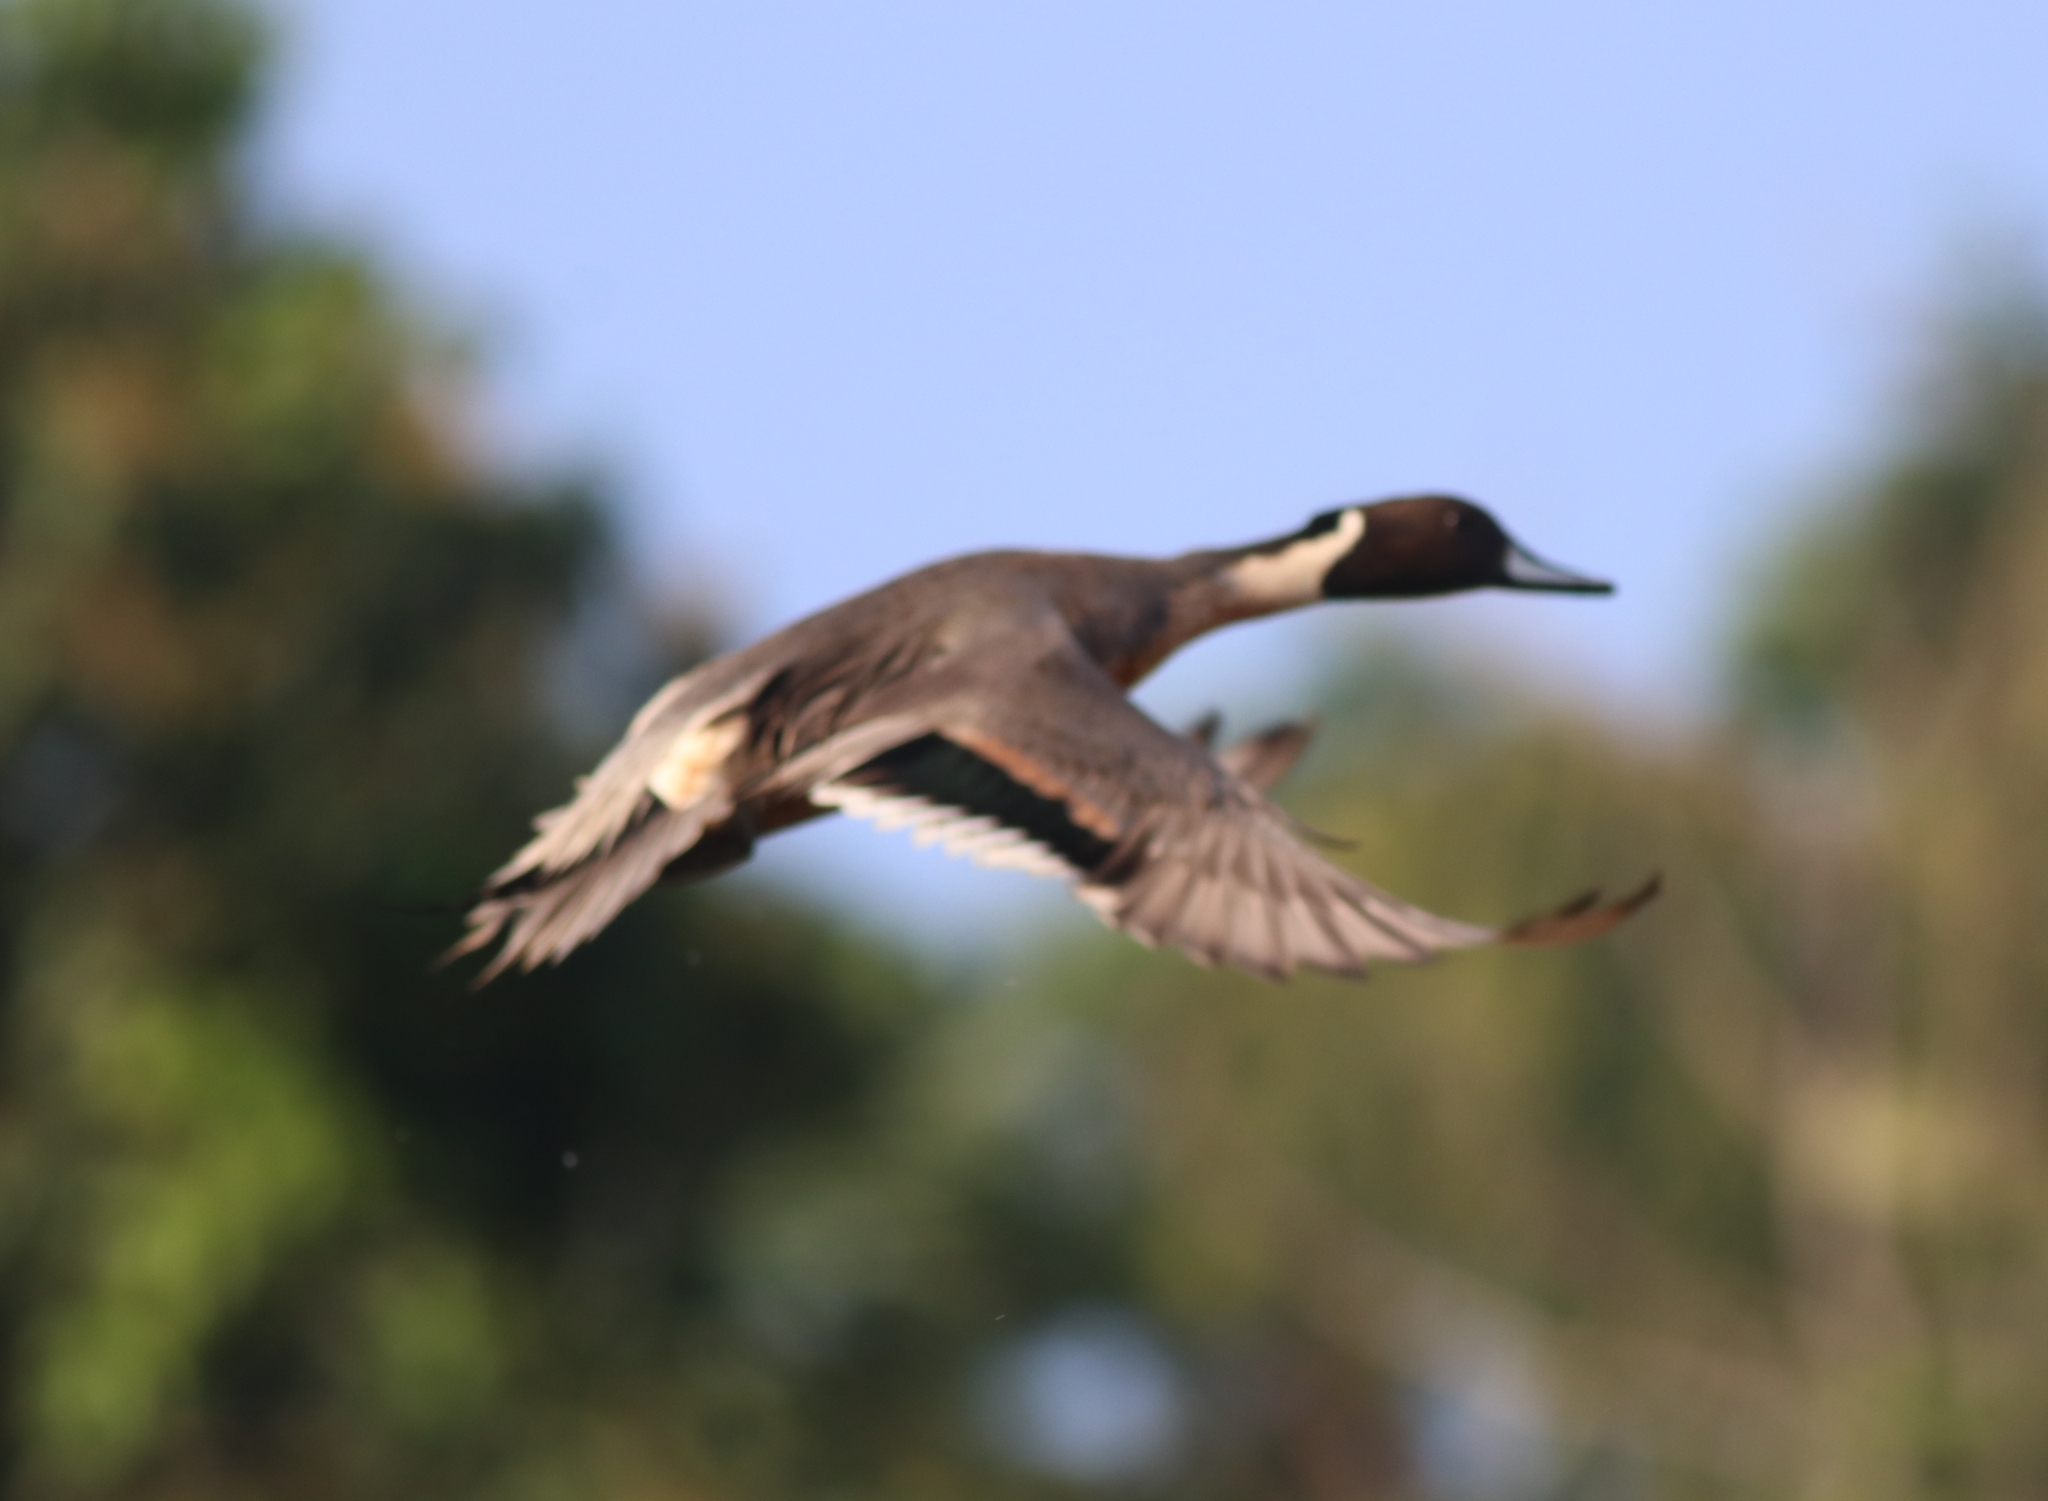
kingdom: Animalia
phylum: Chordata
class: Aves
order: Anseriformes
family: Anatidae
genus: Anas
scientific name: Anas acuta
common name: Northern pintail
